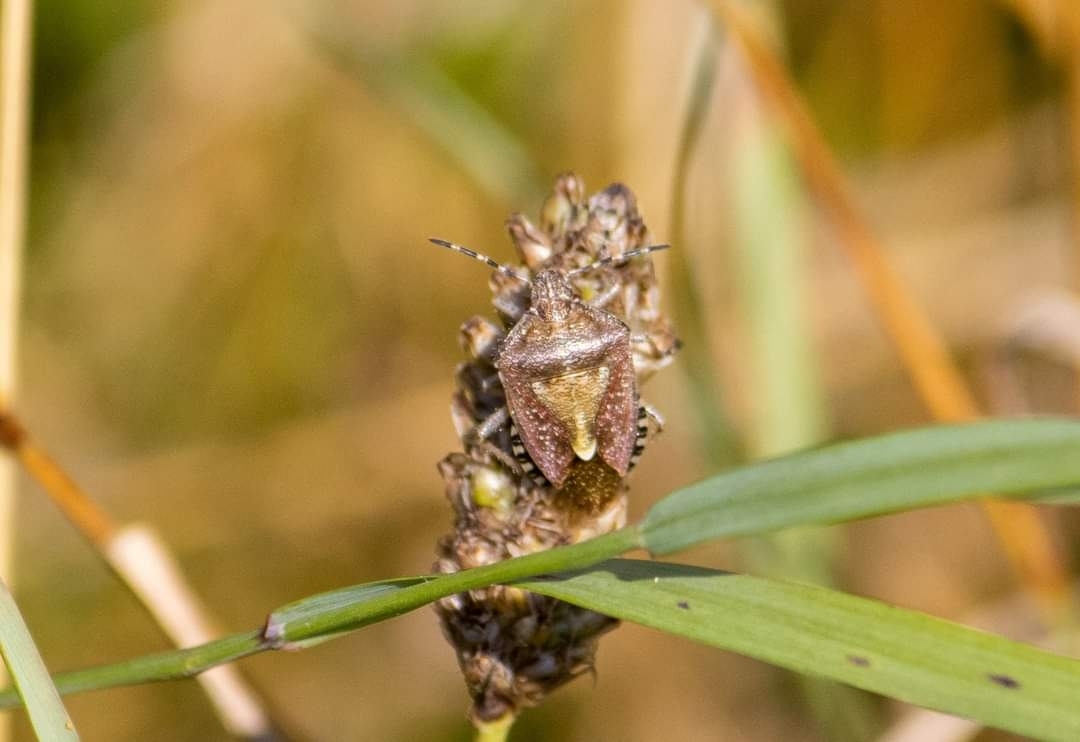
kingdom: Animalia
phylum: Arthropoda
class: Insecta
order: Hemiptera
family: Pentatomidae
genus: Dolycoris
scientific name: Dolycoris baccarum
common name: Sloe bug
